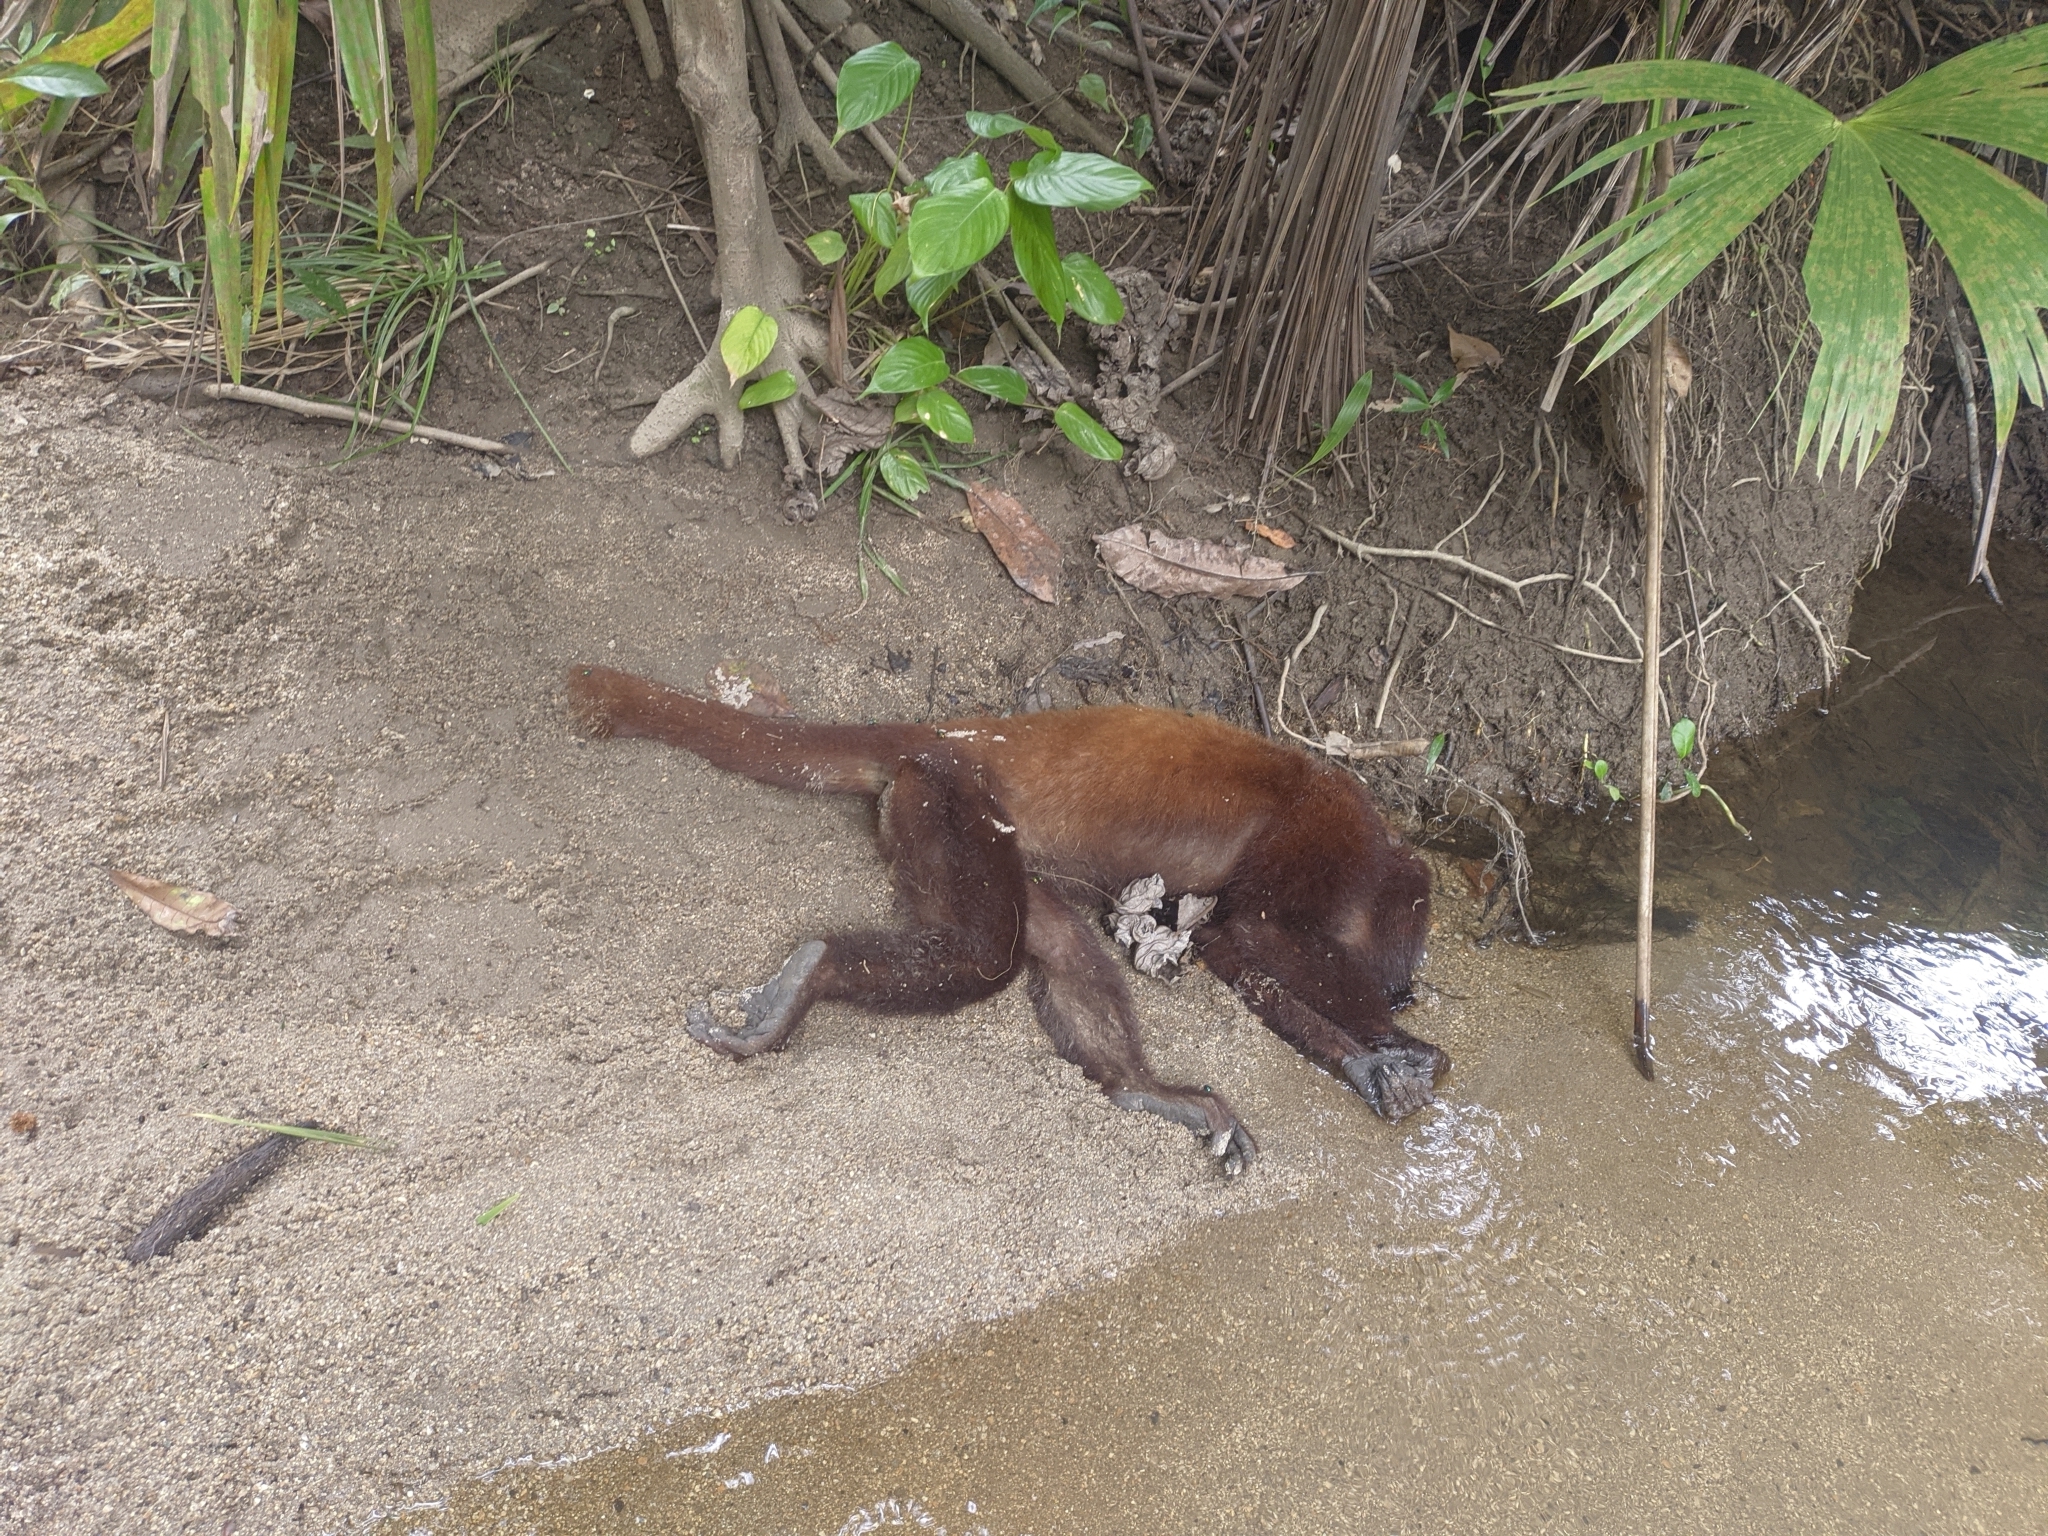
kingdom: Animalia
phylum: Chordata
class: Mammalia
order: Primates
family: Atelidae
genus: Alouatta
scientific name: Alouatta seniculus
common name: Venezuelan red howler
